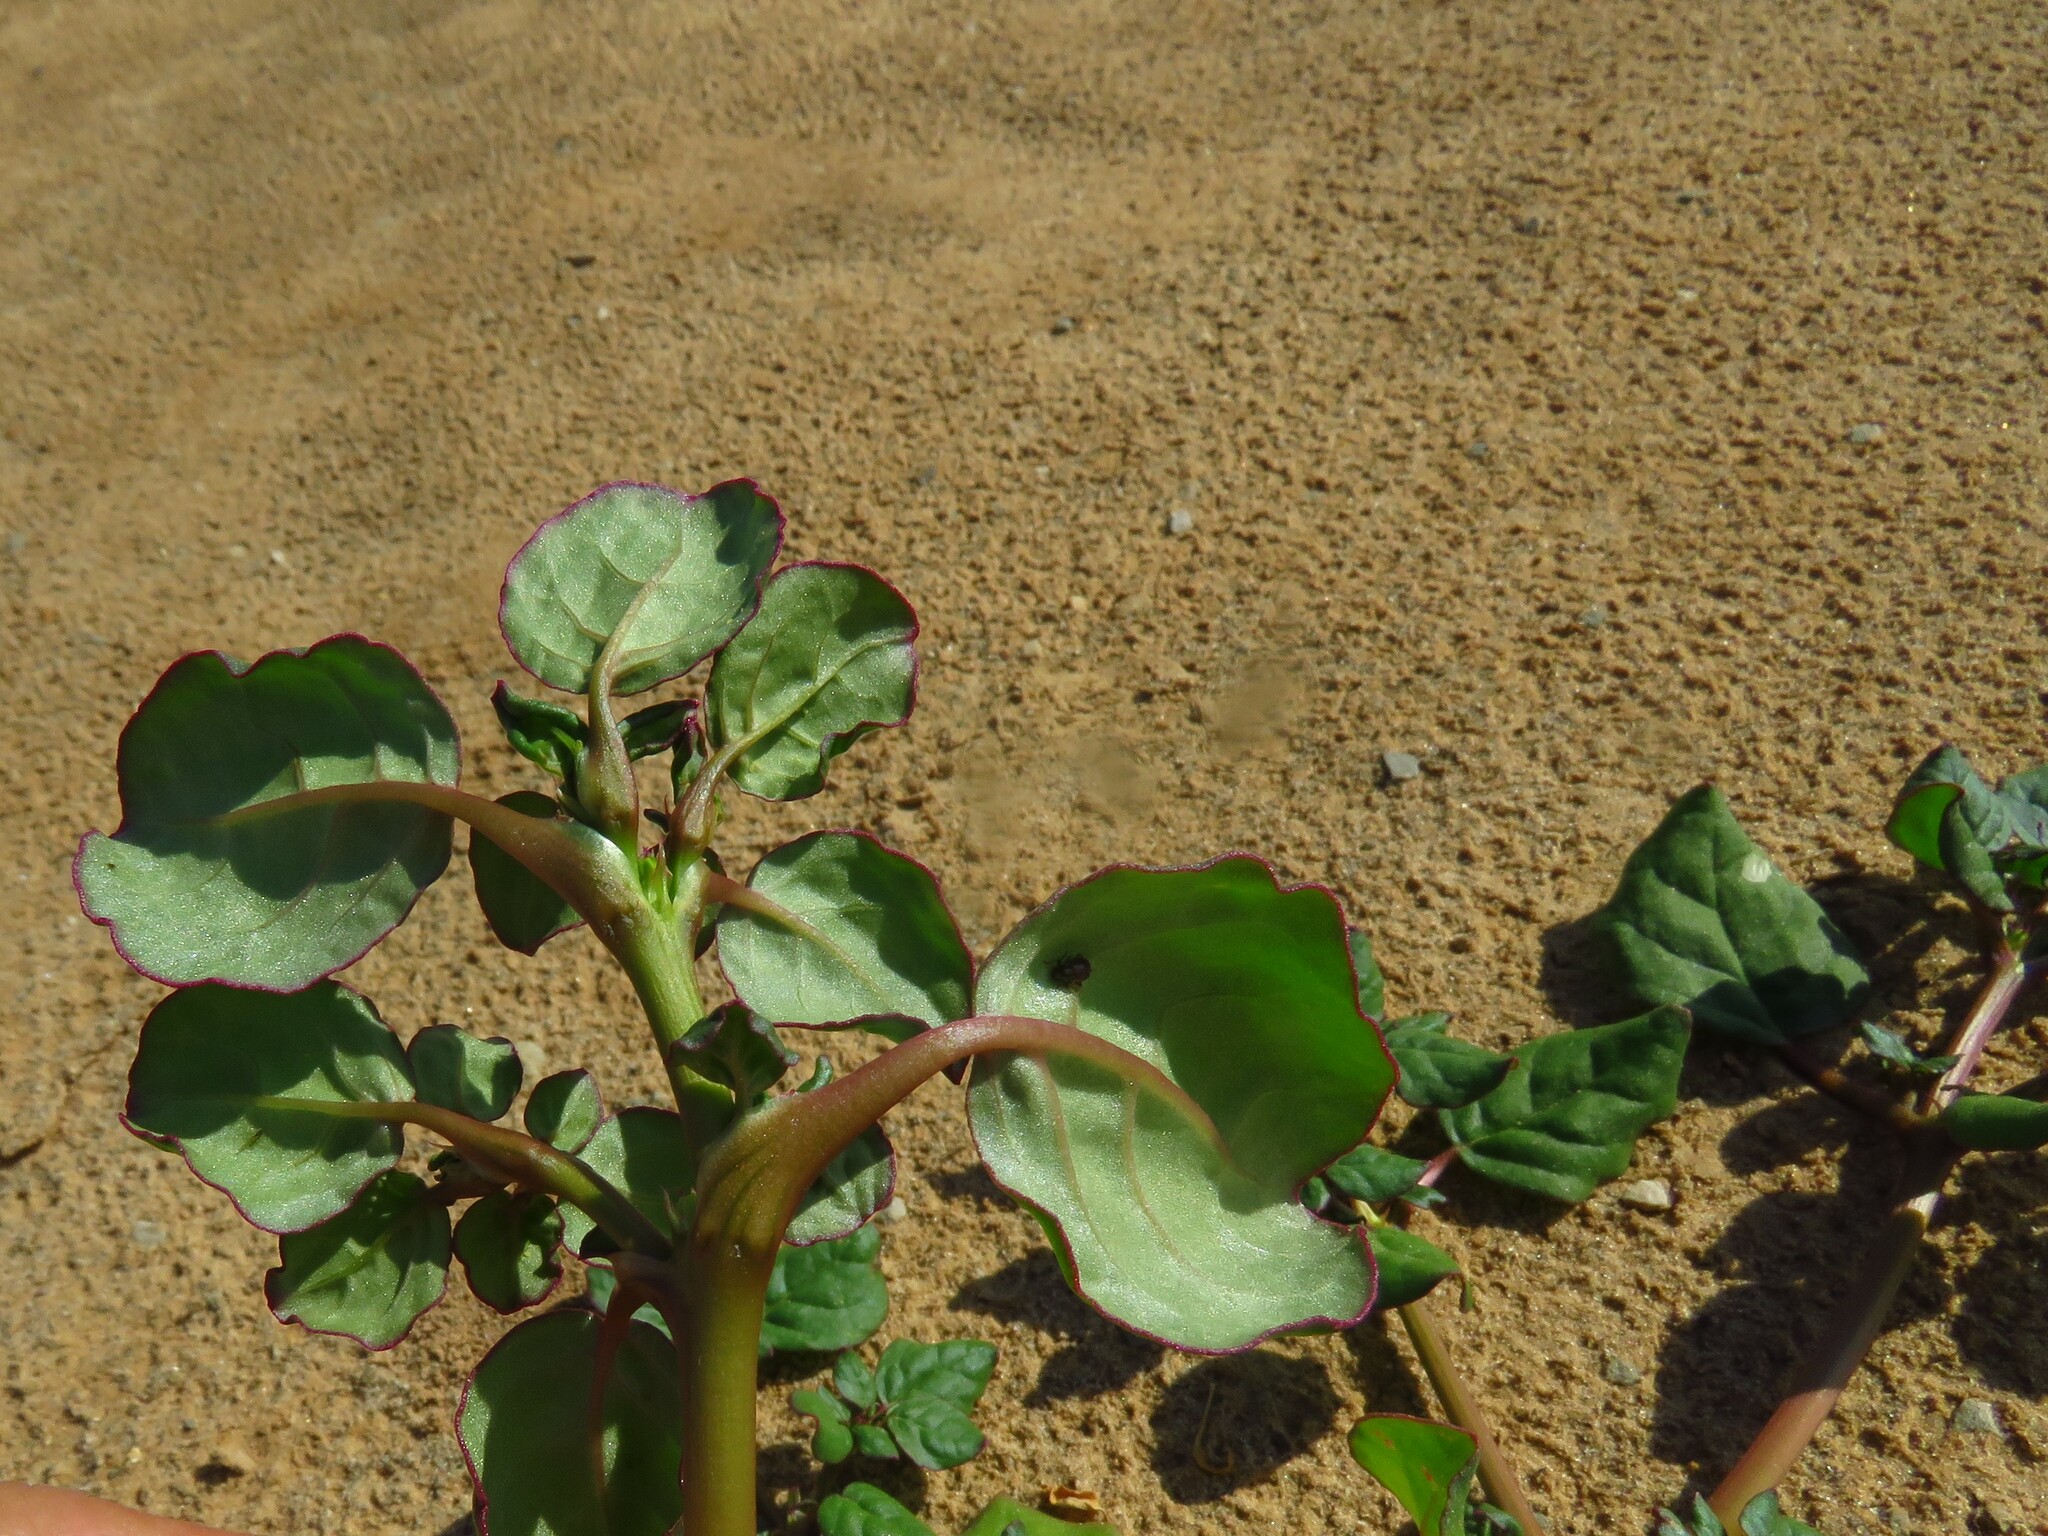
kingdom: Plantae
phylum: Tracheophyta
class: Magnoliopsida
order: Caryophyllales
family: Aizoaceae
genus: Trianthema
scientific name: Trianthema portulacastrum
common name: Desert horsepurslane
